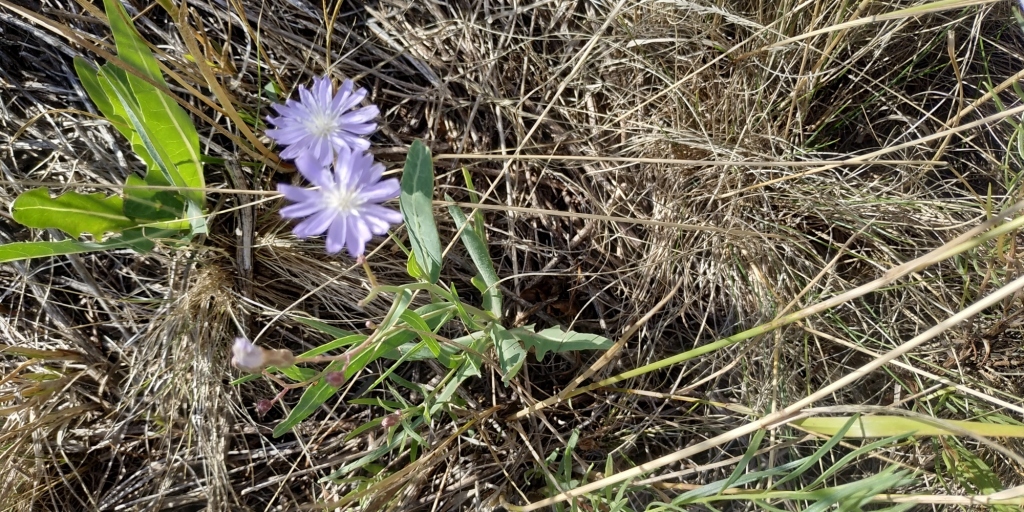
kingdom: Plantae
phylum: Tracheophyta
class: Magnoliopsida
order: Asterales
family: Asteraceae
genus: Lactuca
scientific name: Lactuca tatarica
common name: Blue lettuce
